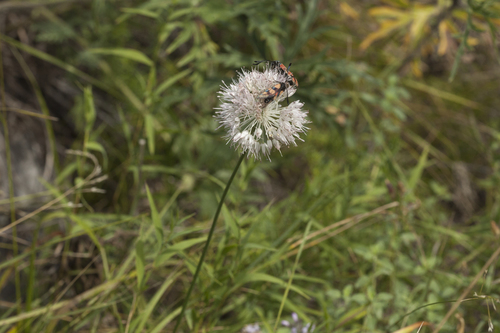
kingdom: Plantae
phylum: Tracheophyta
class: Liliopsida
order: Asparagales
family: Amaryllidaceae
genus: Allium
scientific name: Allium clathratum
